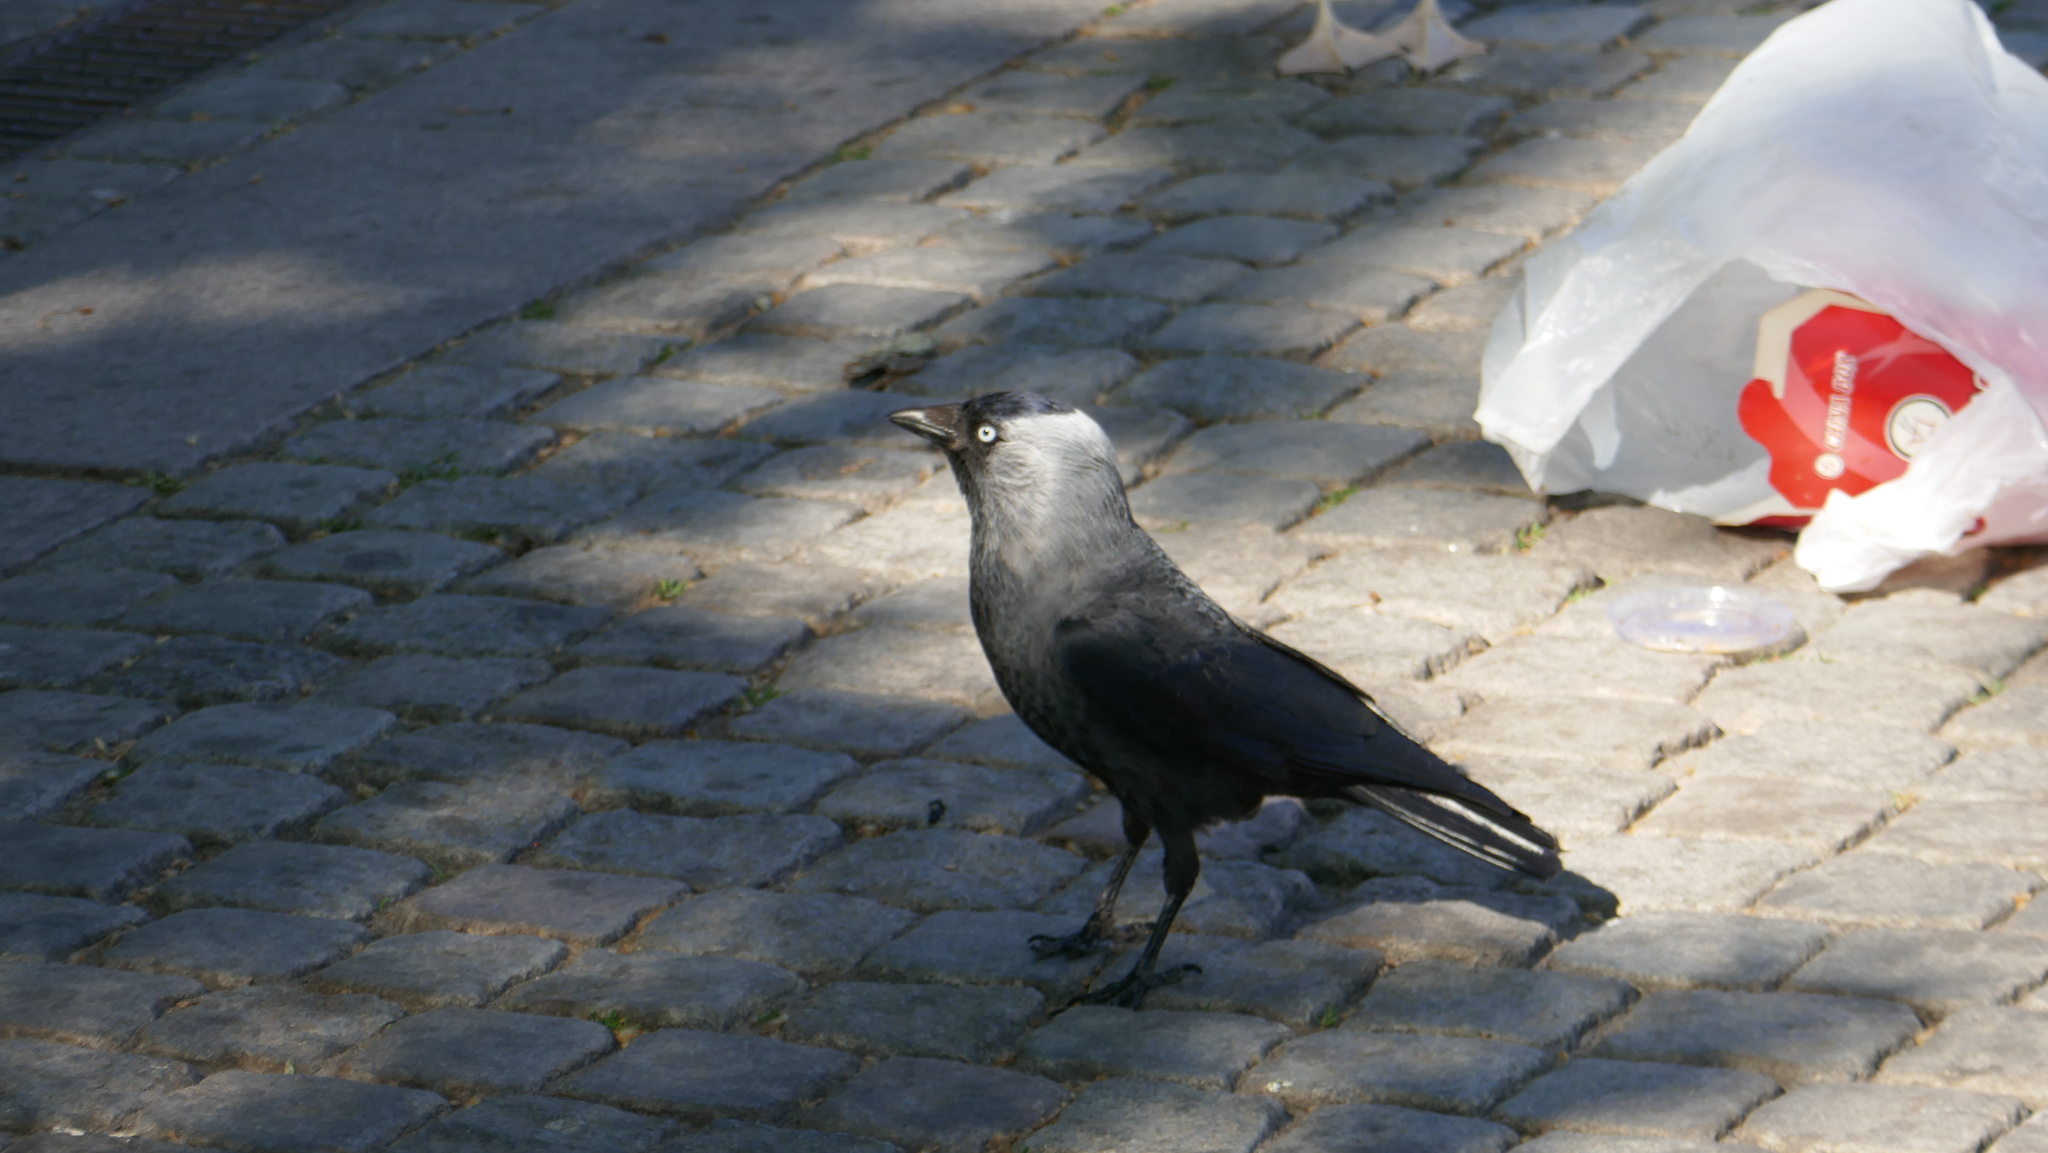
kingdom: Animalia
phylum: Chordata
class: Aves
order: Passeriformes
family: Corvidae
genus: Coloeus
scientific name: Coloeus monedula
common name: Western jackdaw
